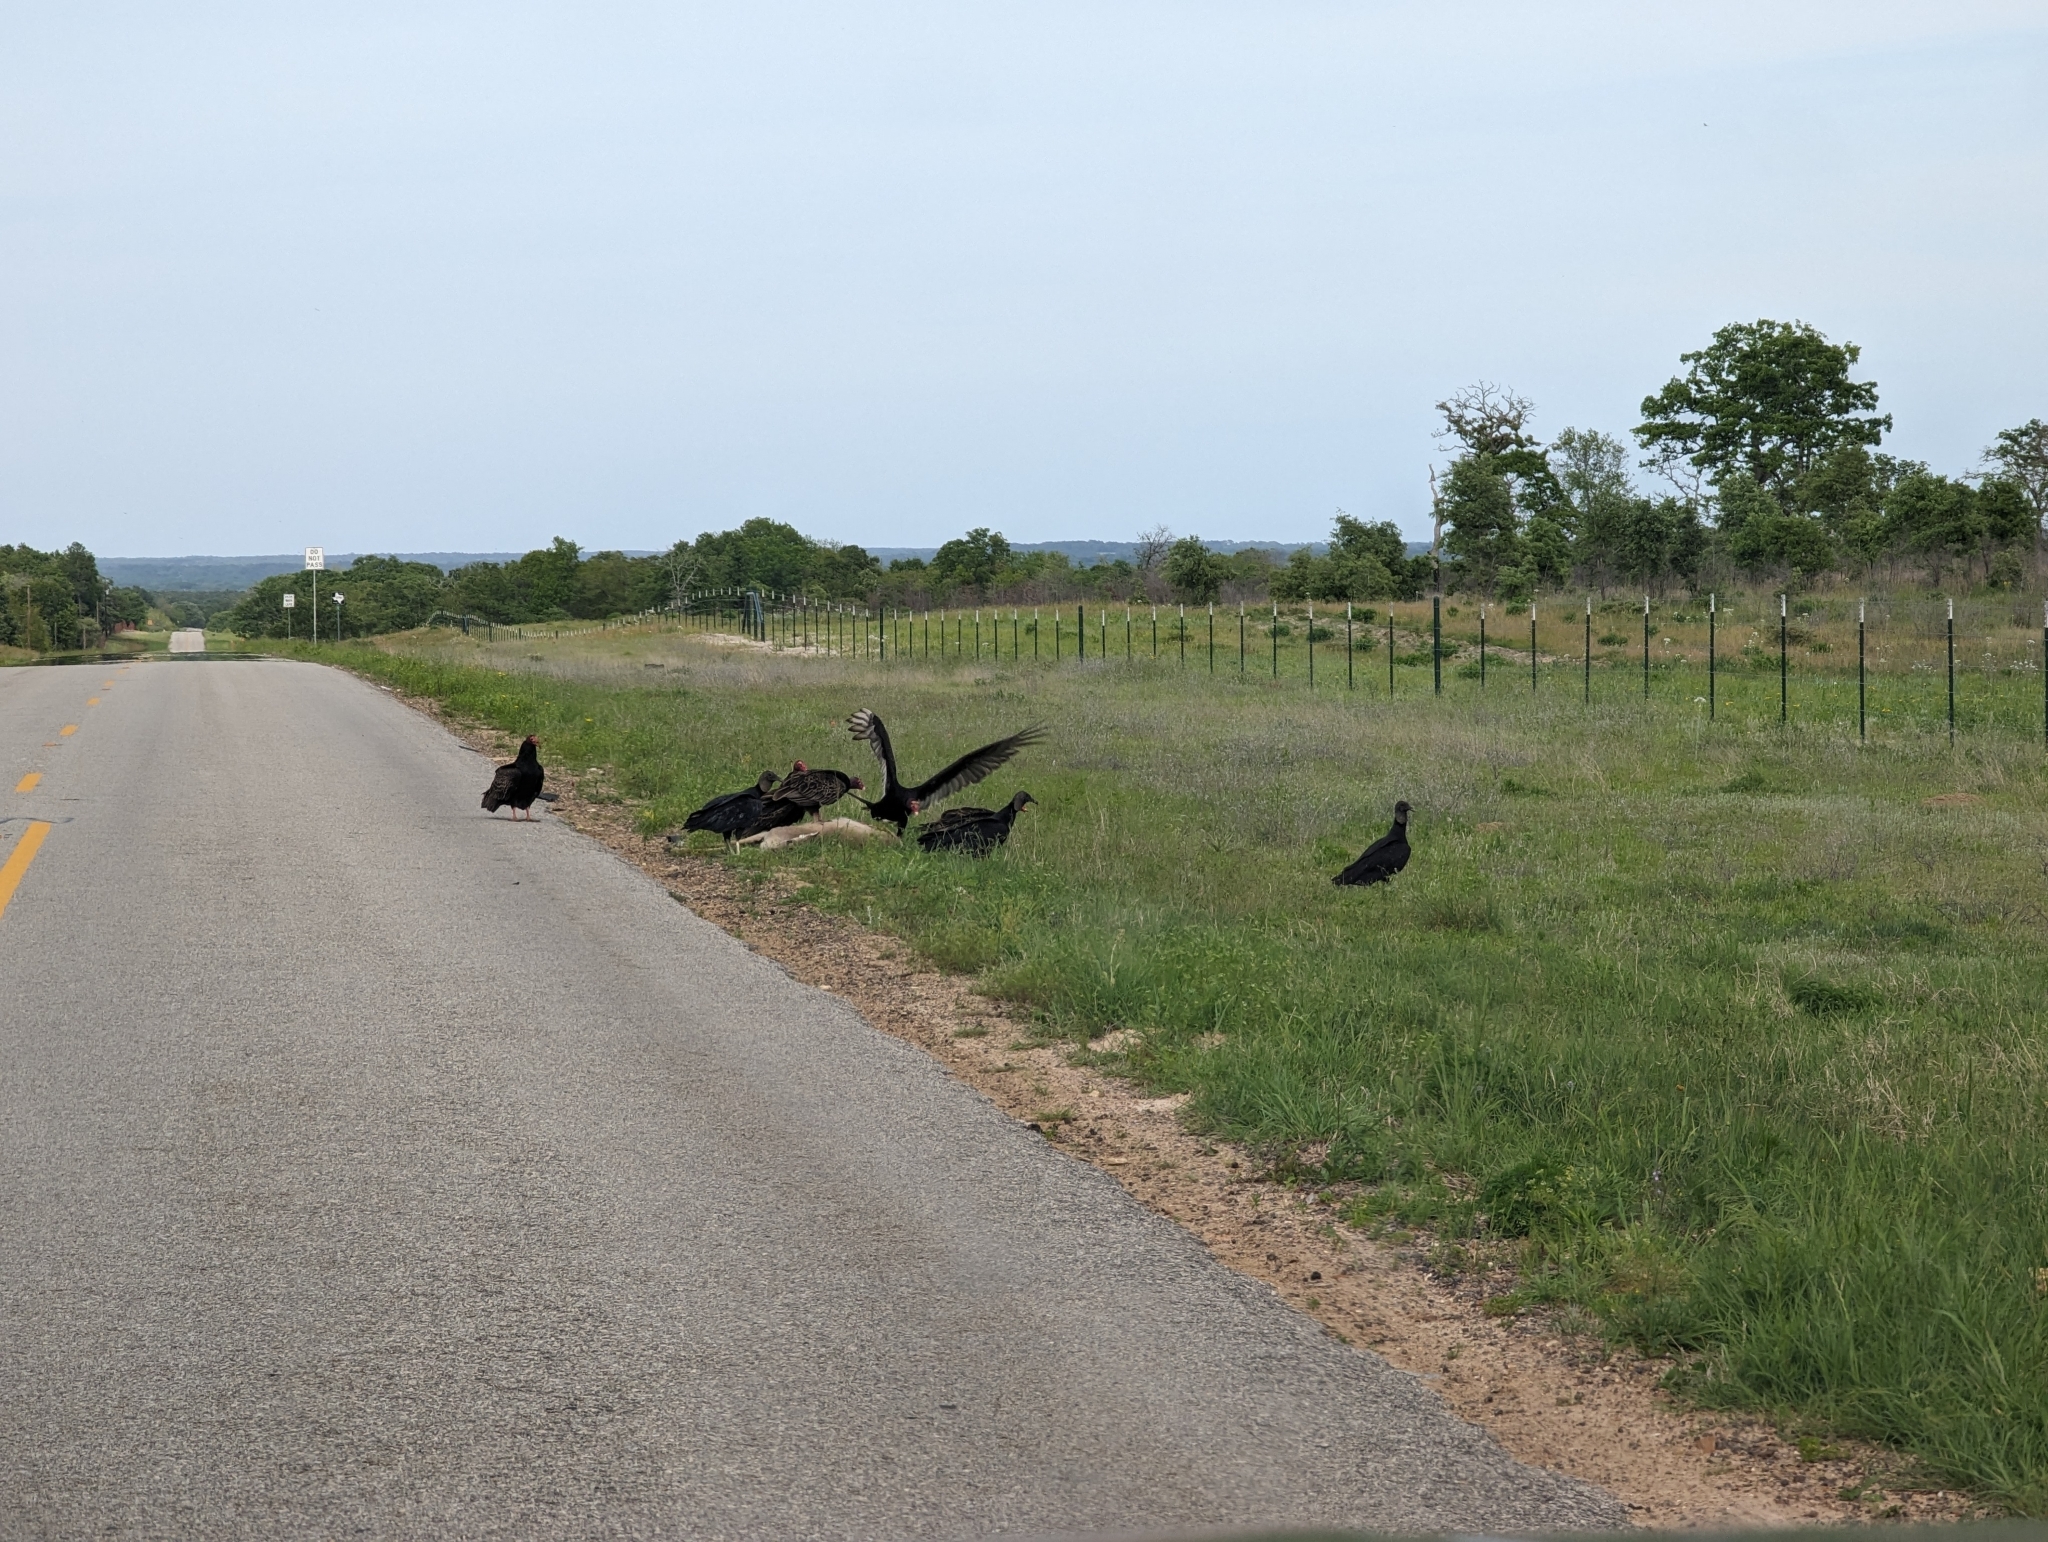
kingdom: Animalia
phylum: Chordata
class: Aves
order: Accipitriformes
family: Cathartidae
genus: Cathartes
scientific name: Cathartes aura
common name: Turkey vulture
